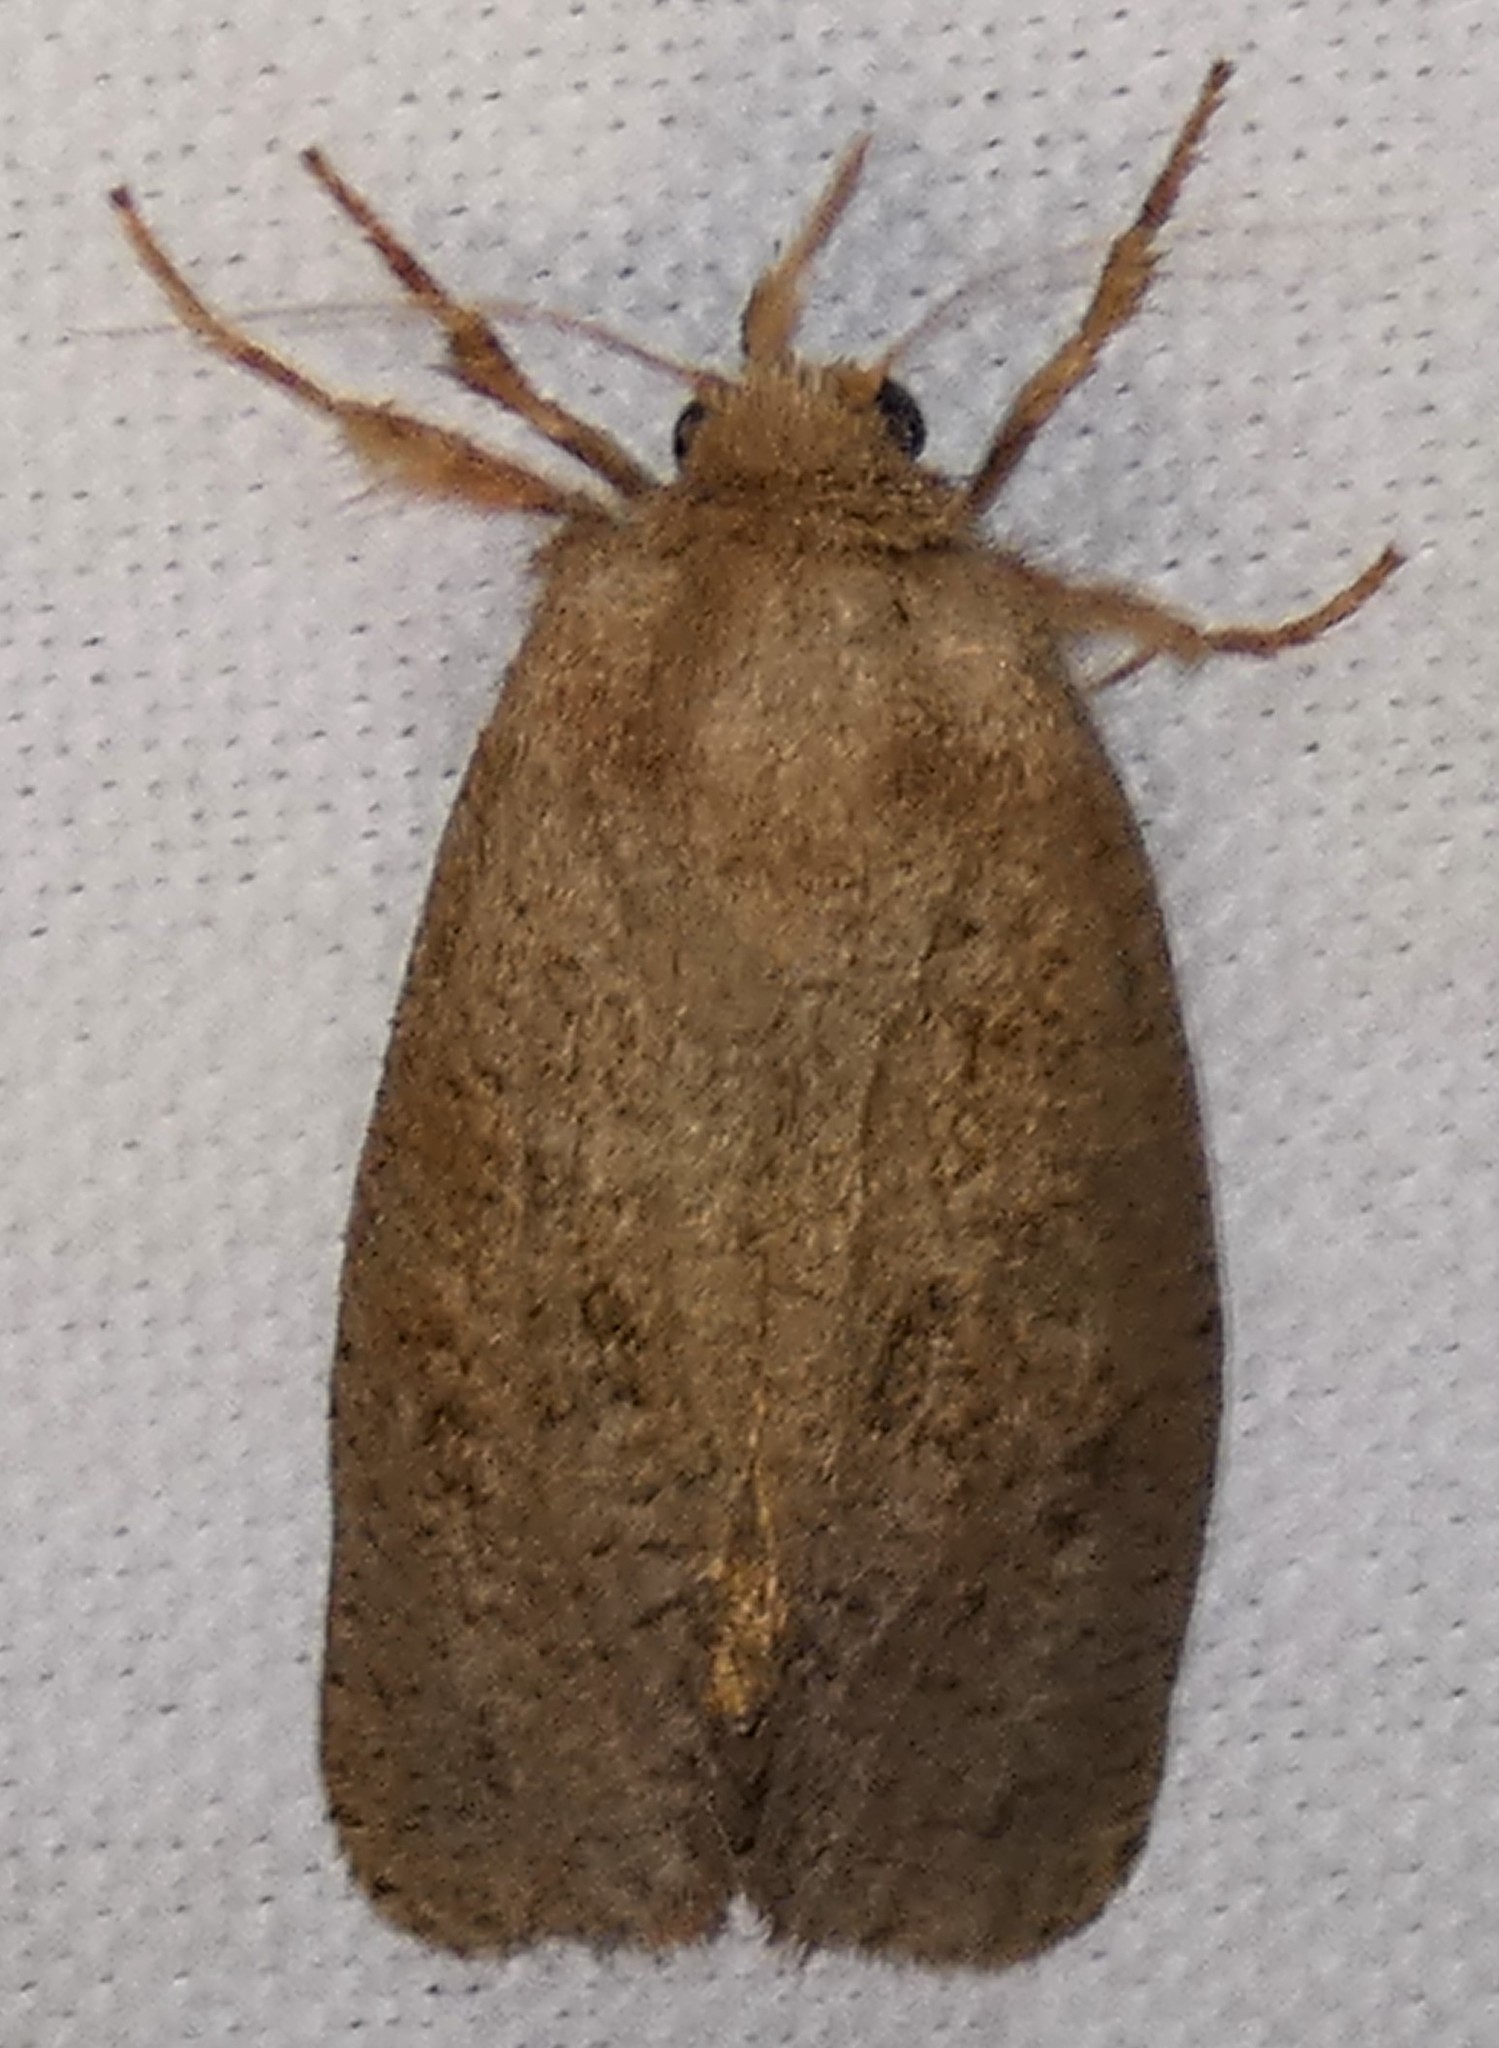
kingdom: Animalia
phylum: Arthropoda
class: Insecta
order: Lepidoptera
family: Tineidae
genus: Acrolophus
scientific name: Acrolophus plumifrontella
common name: Eastern grass tubeworm moth
